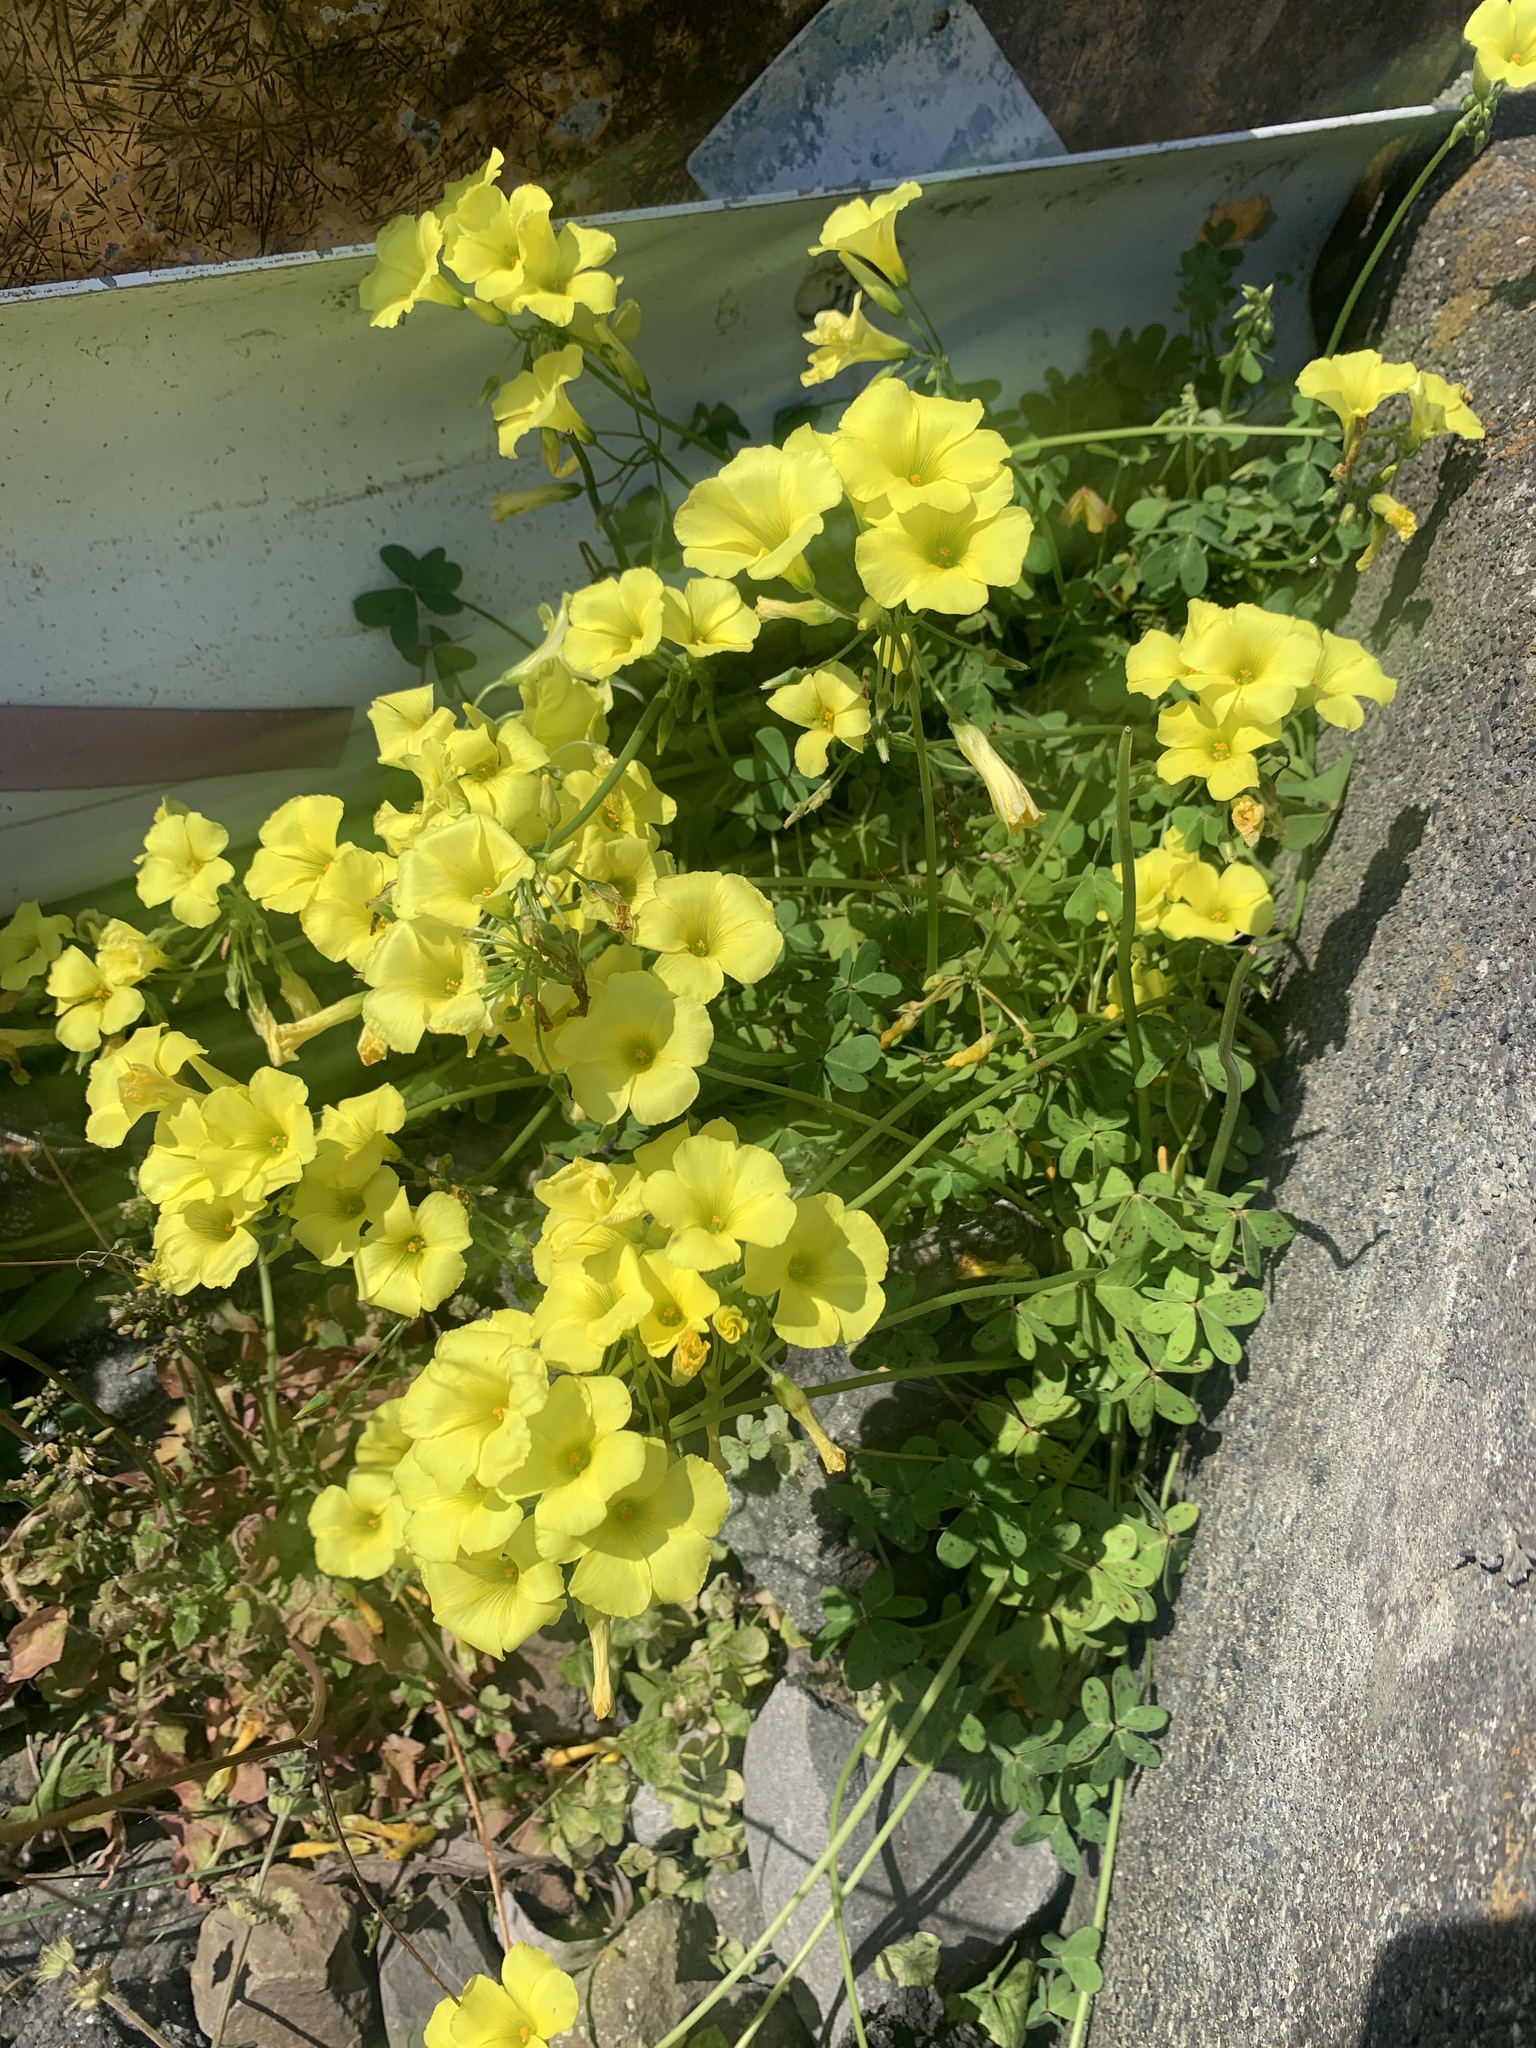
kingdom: Plantae
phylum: Tracheophyta
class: Magnoliopsida
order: Oxalidales
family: Oxalidaceae
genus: Oxalis
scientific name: Oxalis pes-caprae
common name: Bermuda-buttercup
